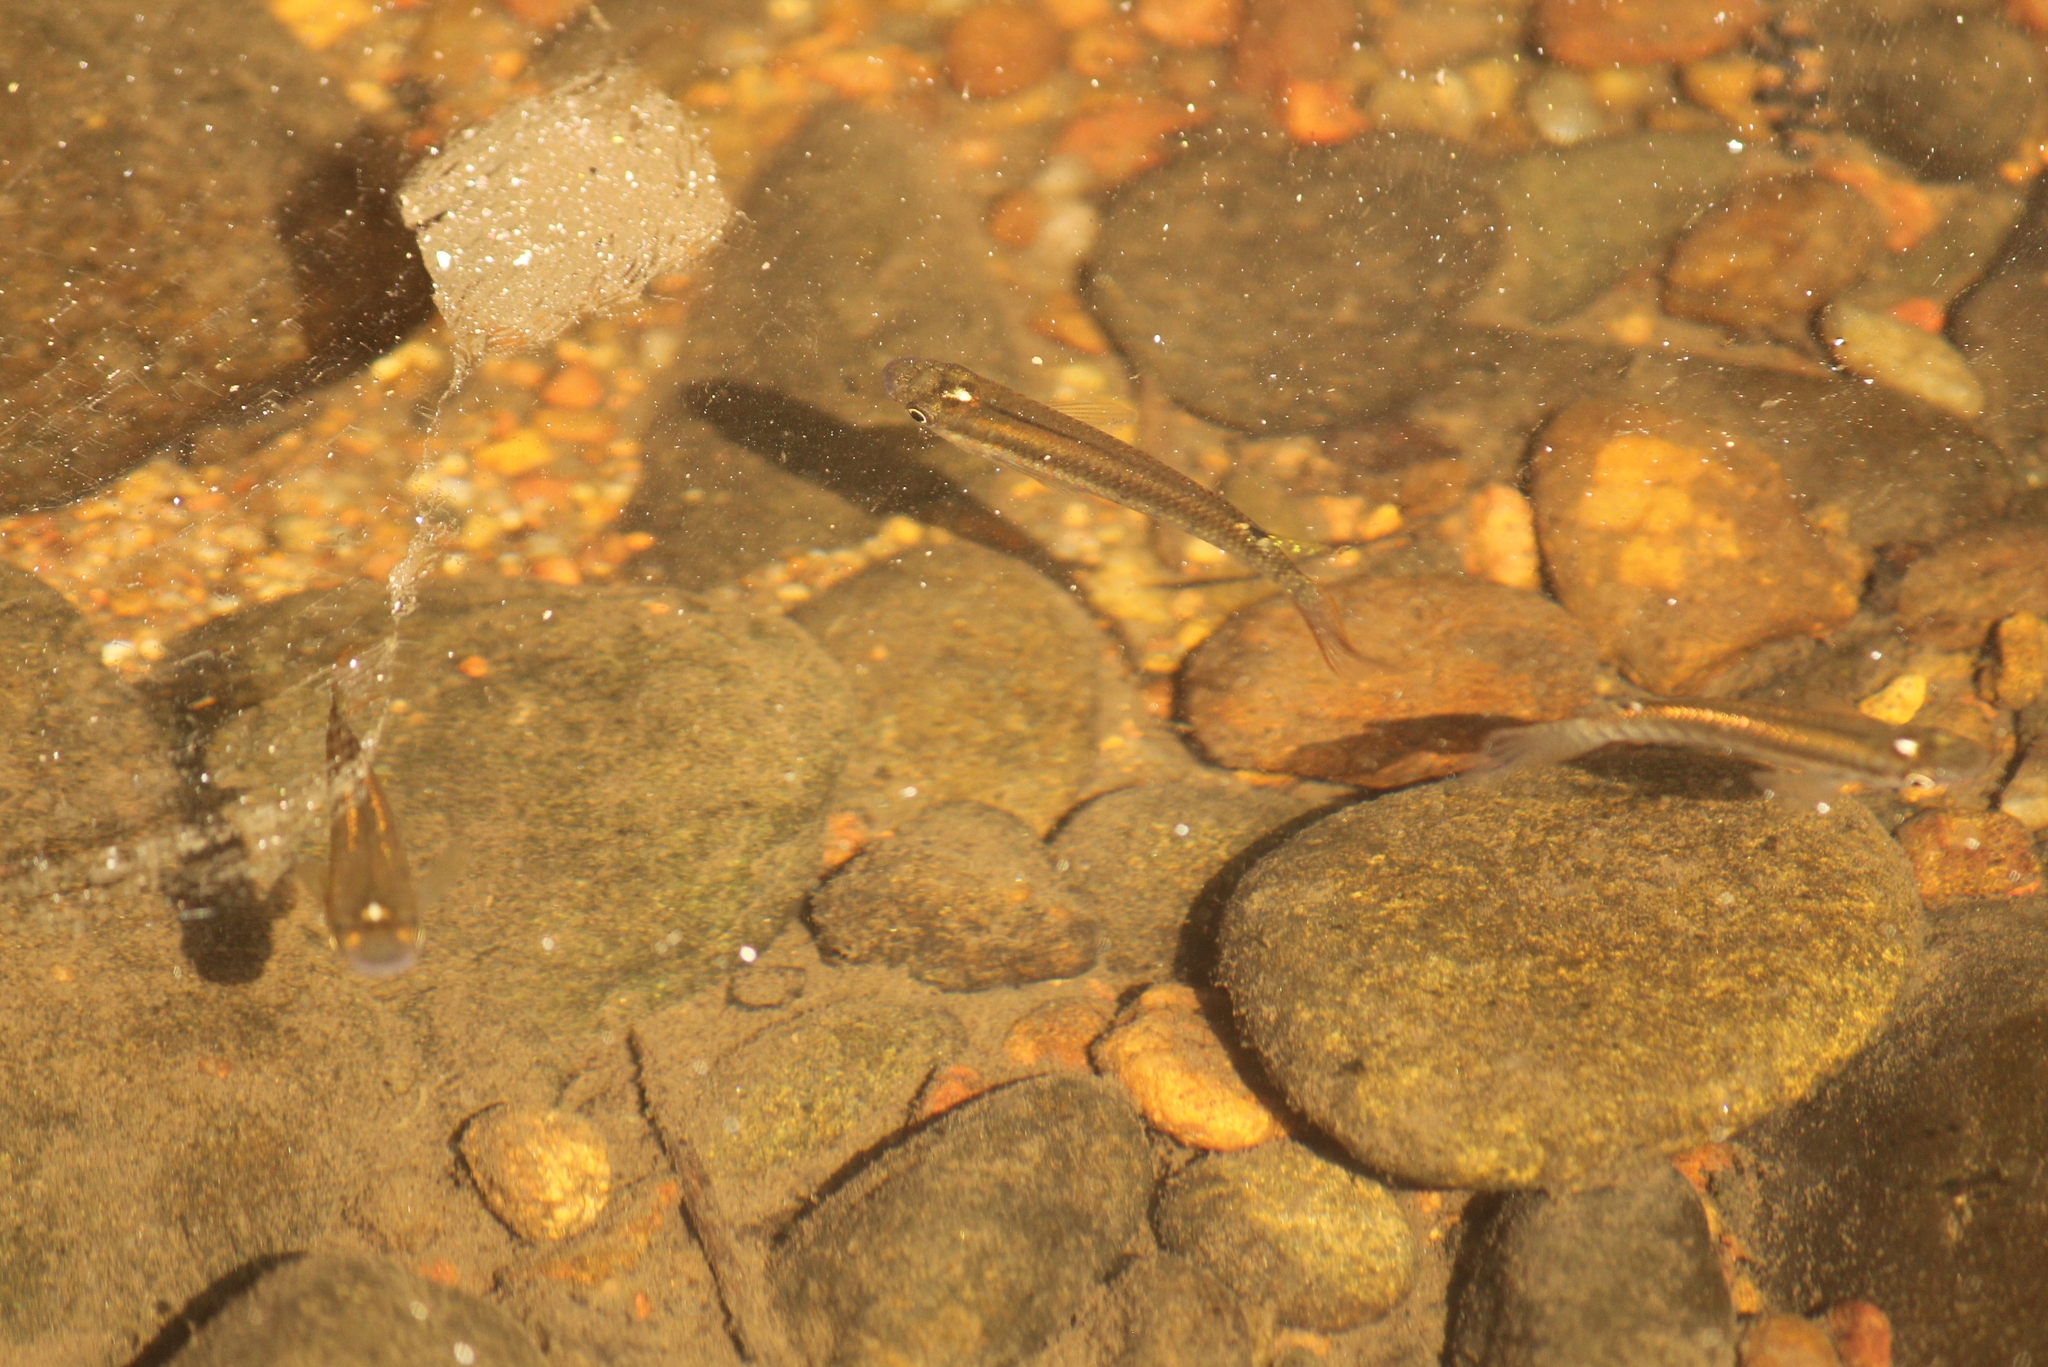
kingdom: Animalia
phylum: Chordata
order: Cyprinodontiformes
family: Aplocheilidae
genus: Aplocheilus
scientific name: Aplocheilus lineatus
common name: Striped panchax
